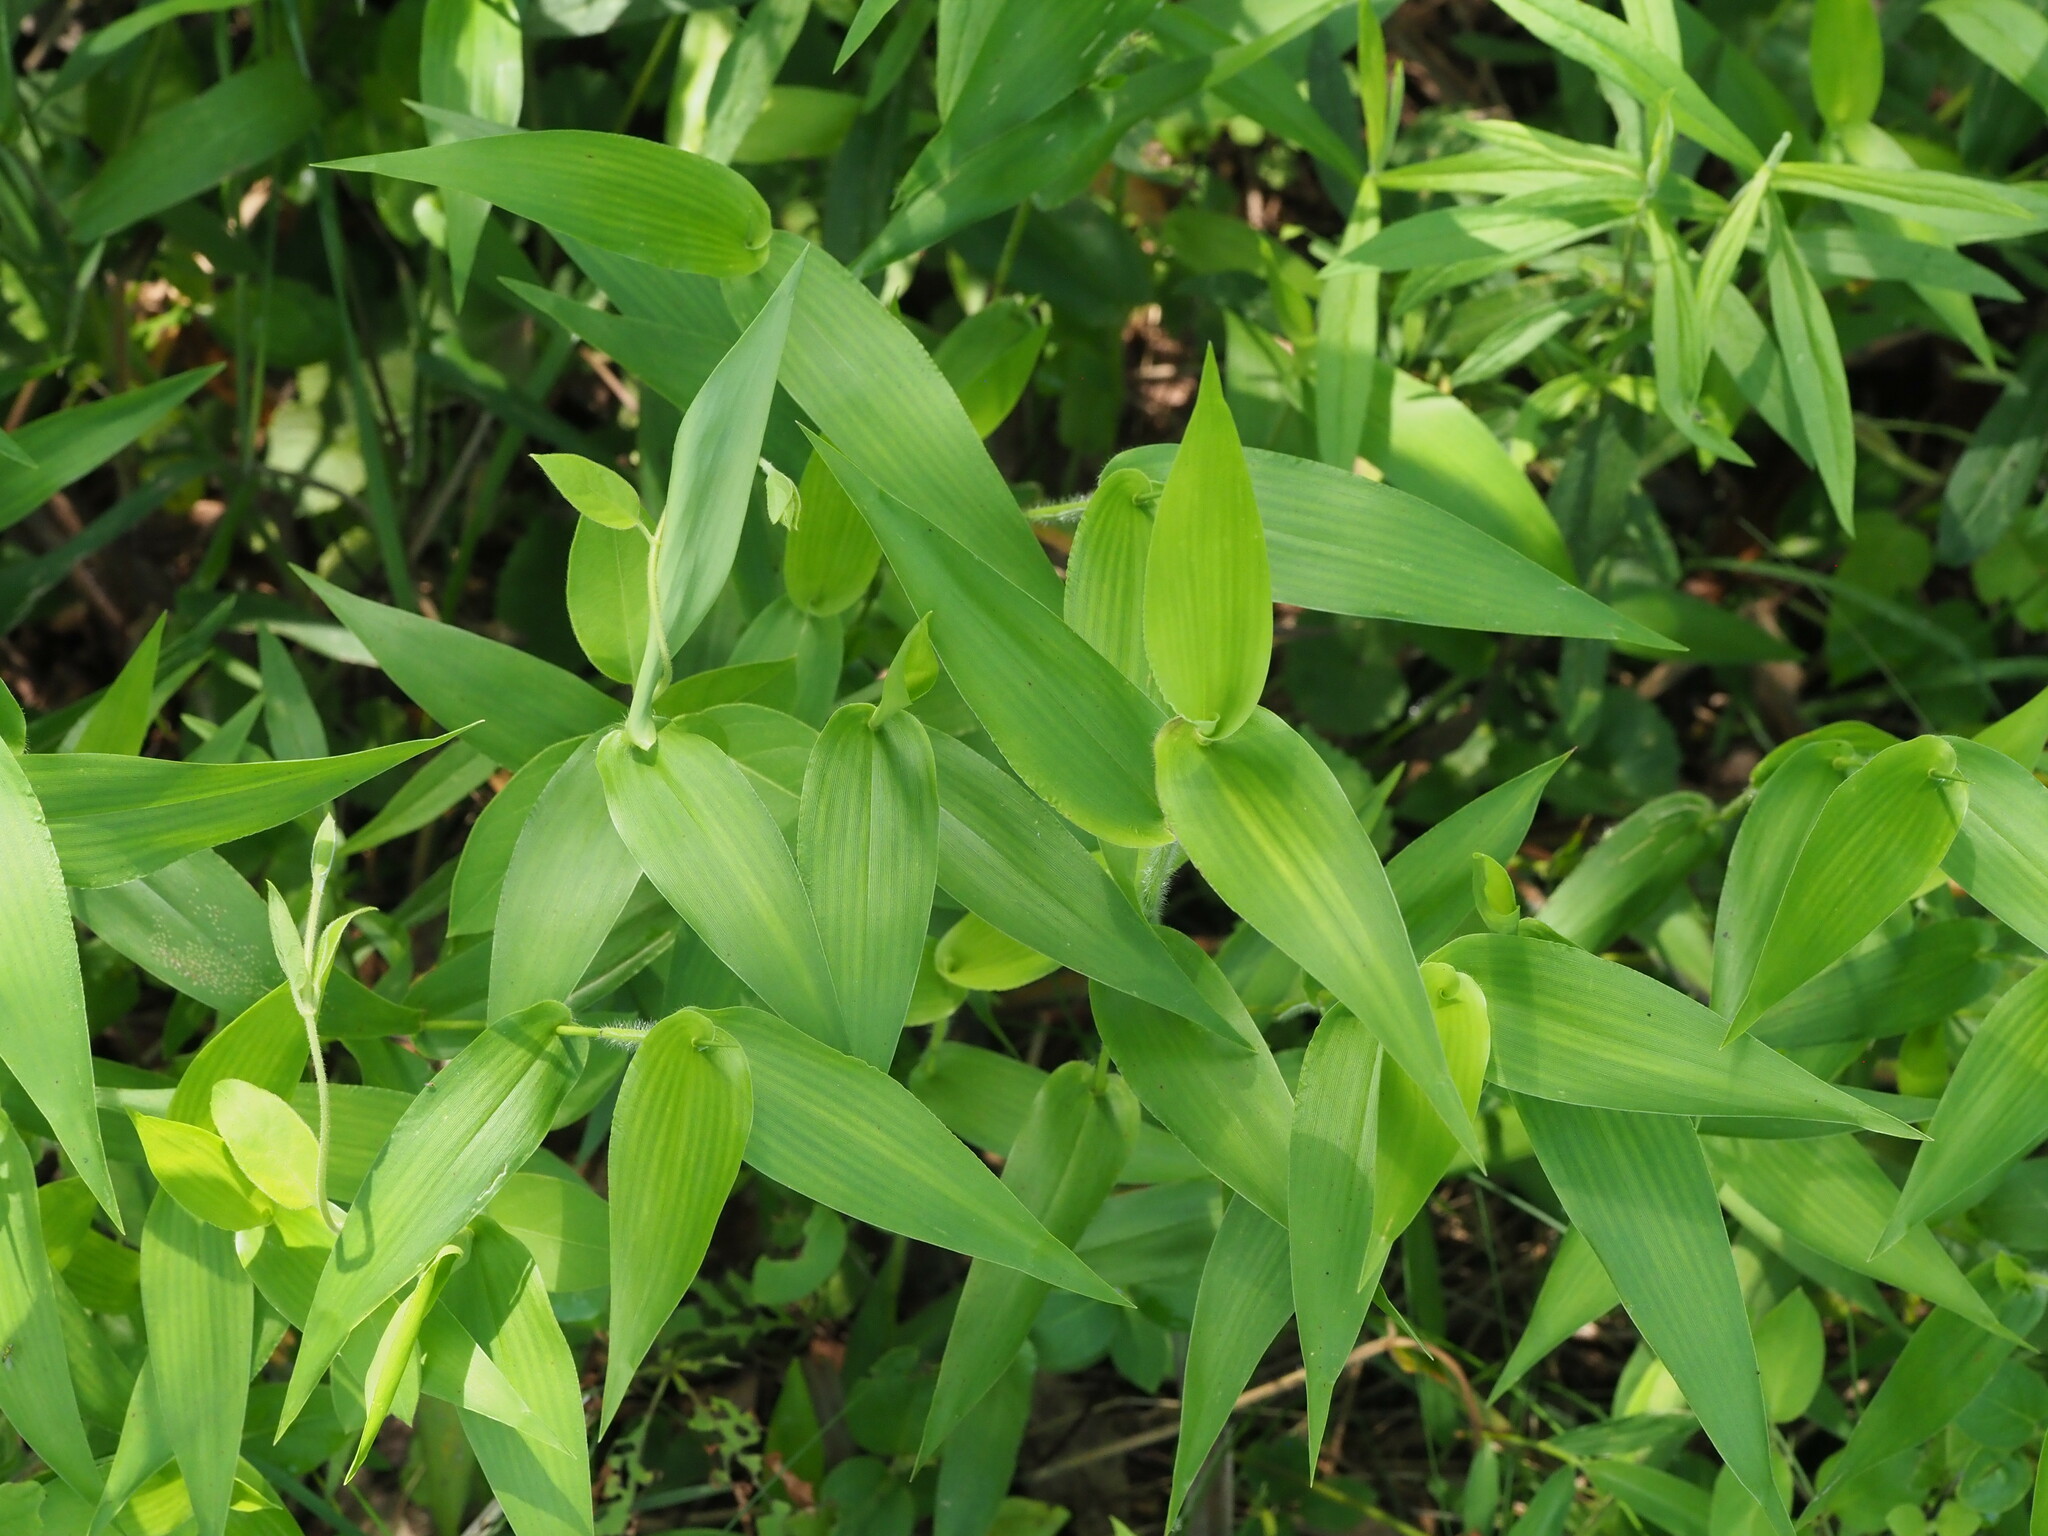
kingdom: Plantae
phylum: Tracheophyta
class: Liliopsida
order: Poales
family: Poaceae
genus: Dichanthelium
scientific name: Dichanthelium clandestinum
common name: Deer-tongue grass
